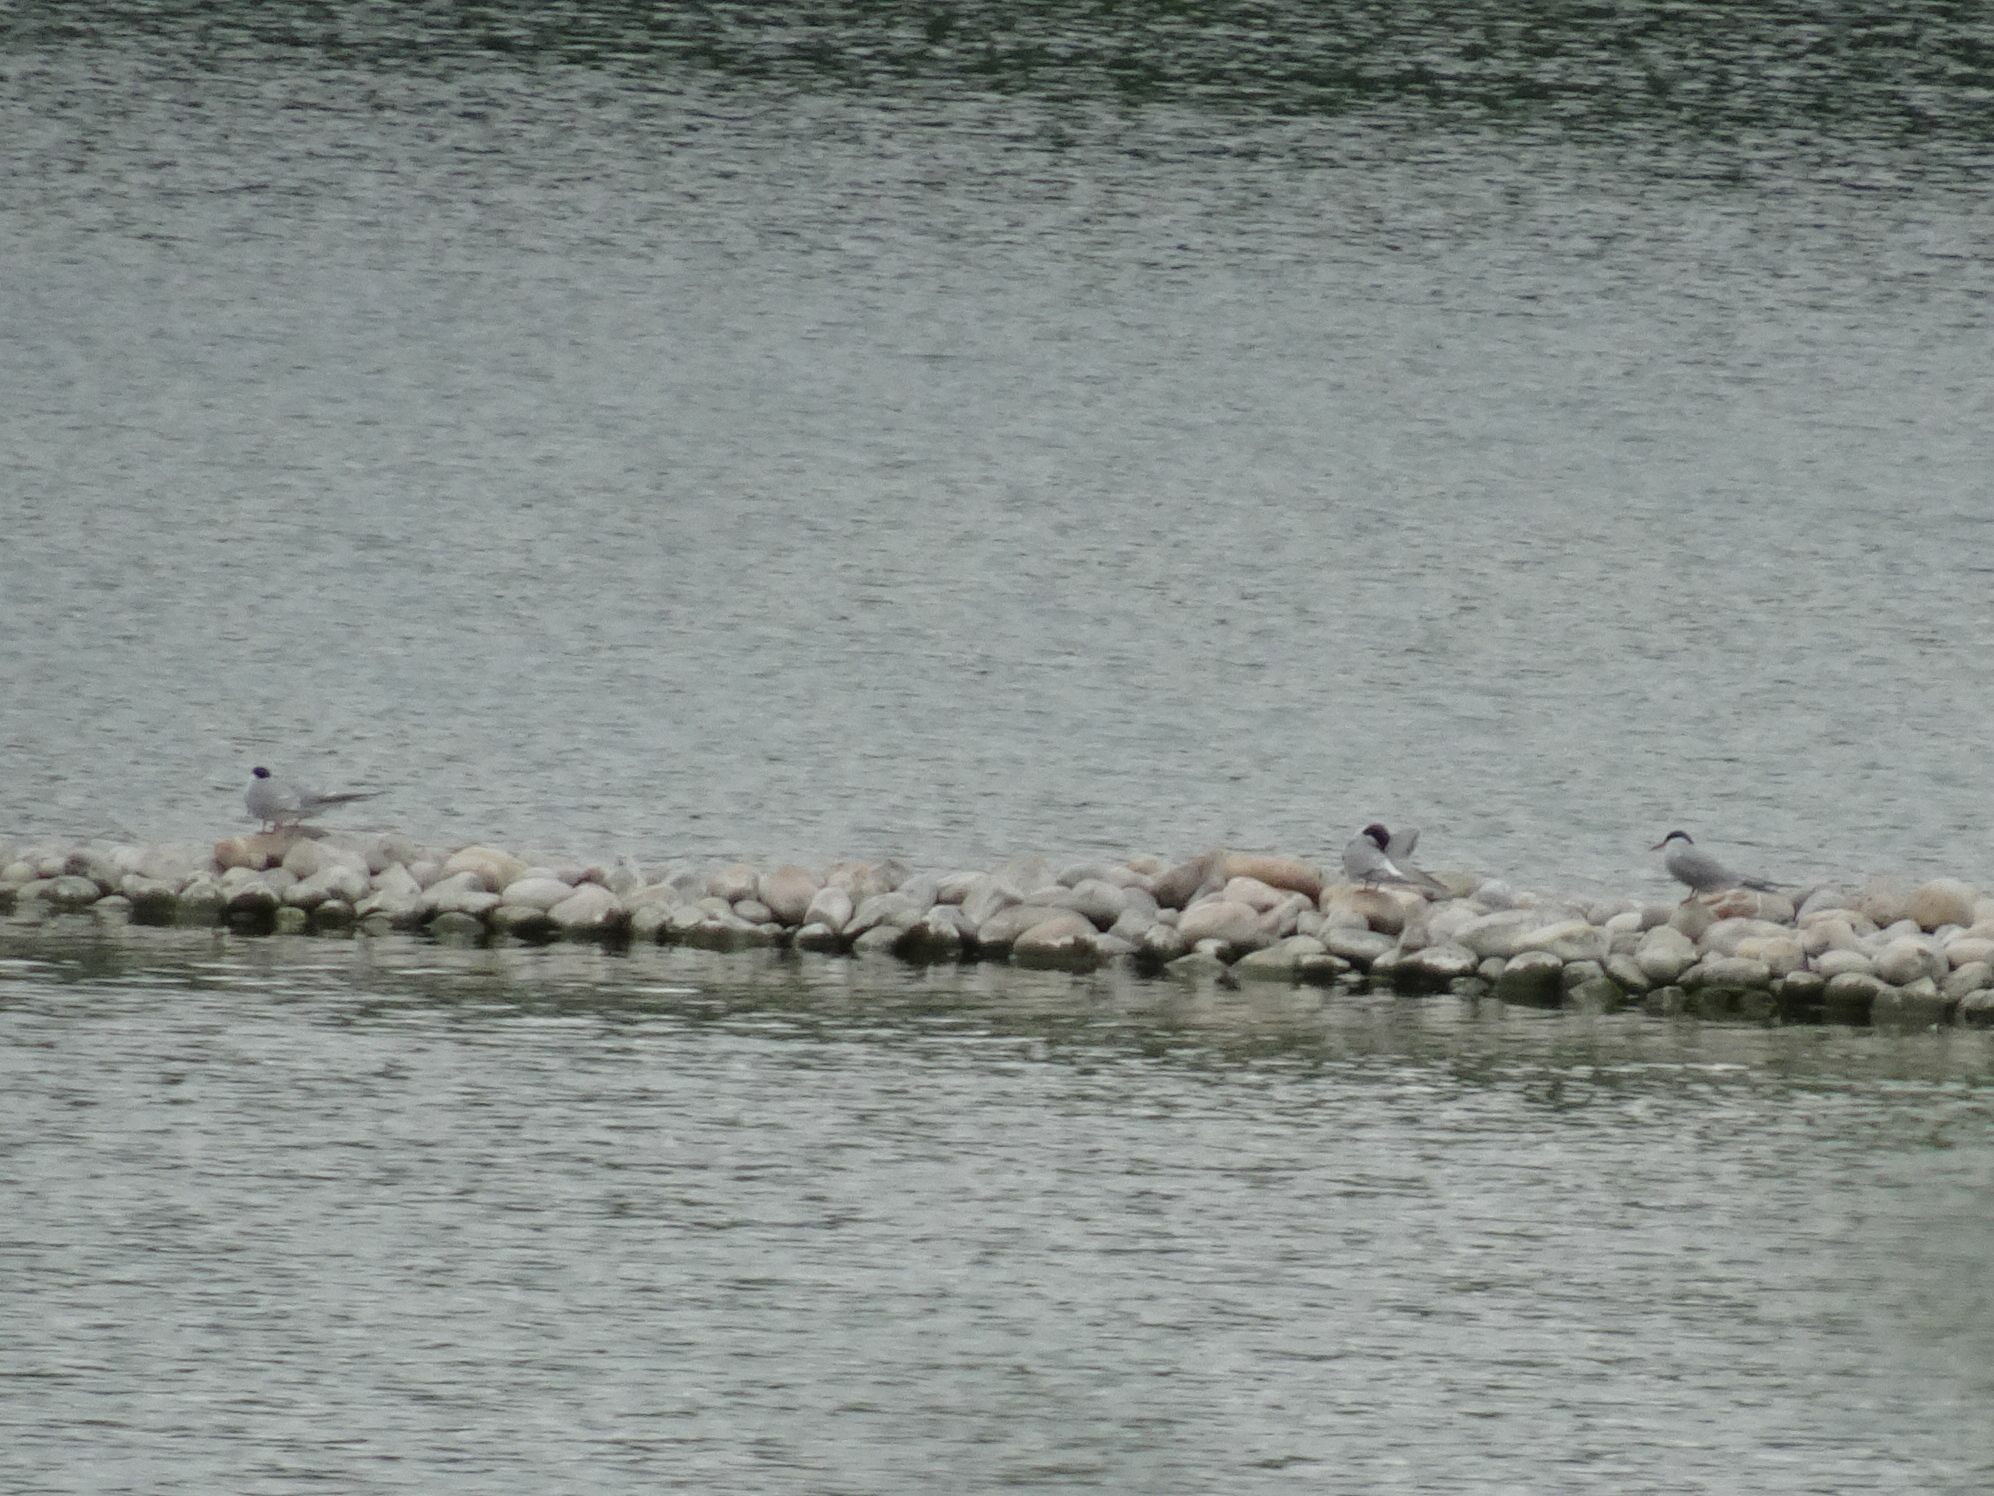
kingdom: Animalia
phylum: Chordata
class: Aves
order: Charadriiformes
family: Laridae
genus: Sterna
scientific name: Sterna hirundo
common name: Common tern
